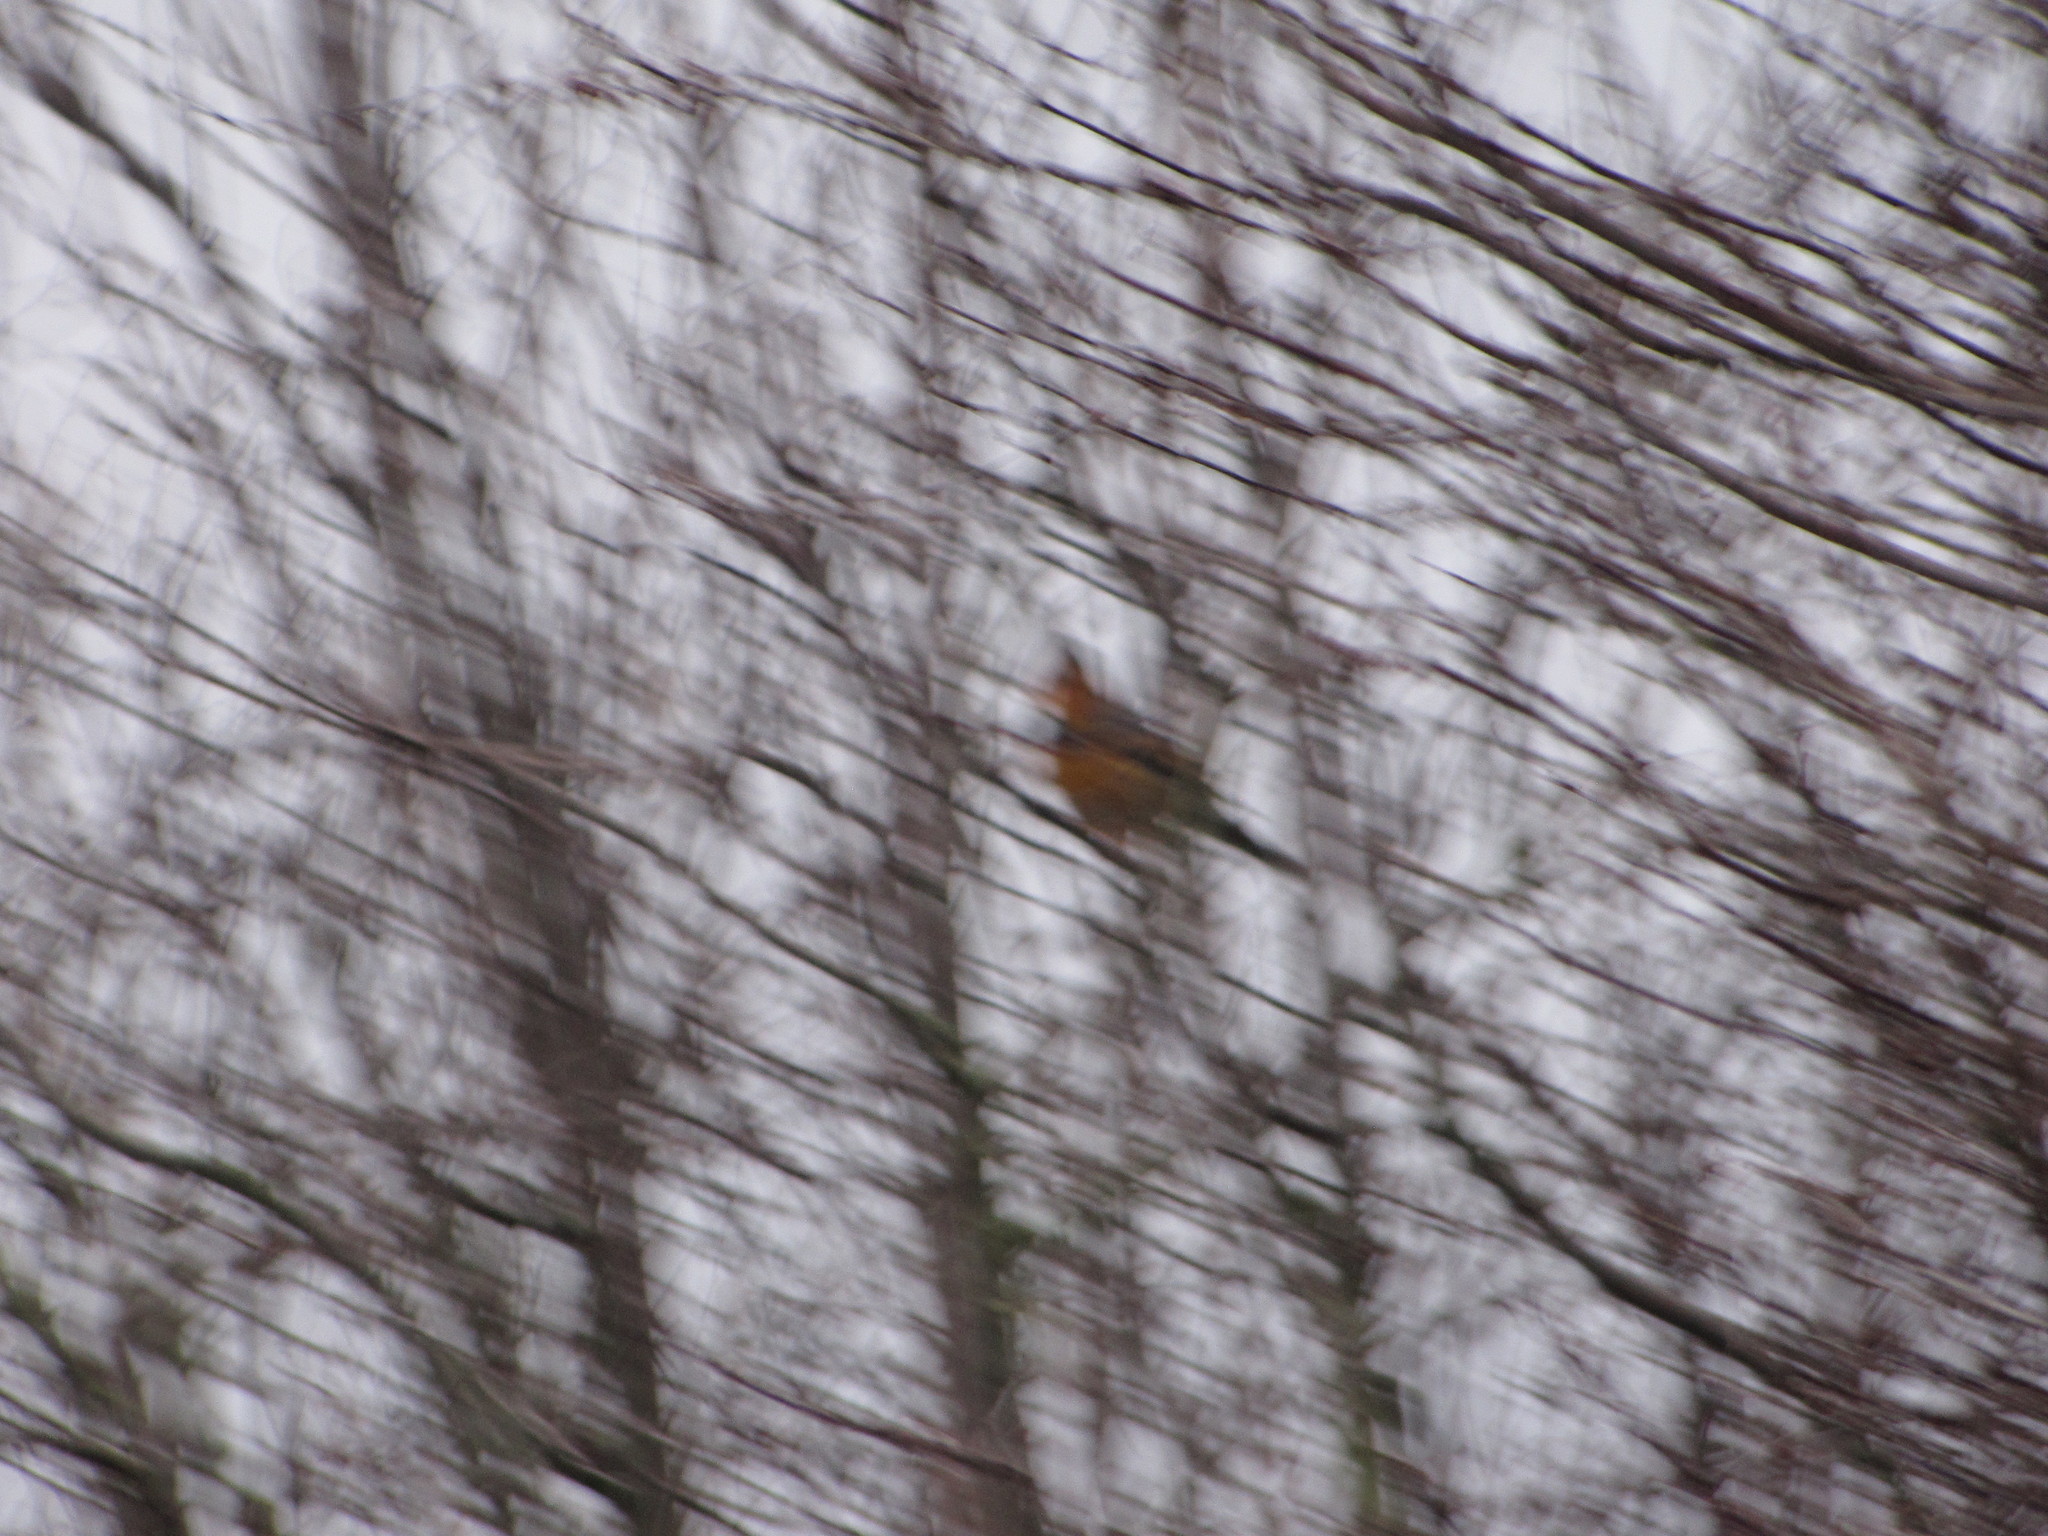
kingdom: Animalia
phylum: Chordata
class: Aves
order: Passeriformes
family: Turdidae
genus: Ixoreus
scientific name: Ixoreus naevius
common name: Varied thrush
